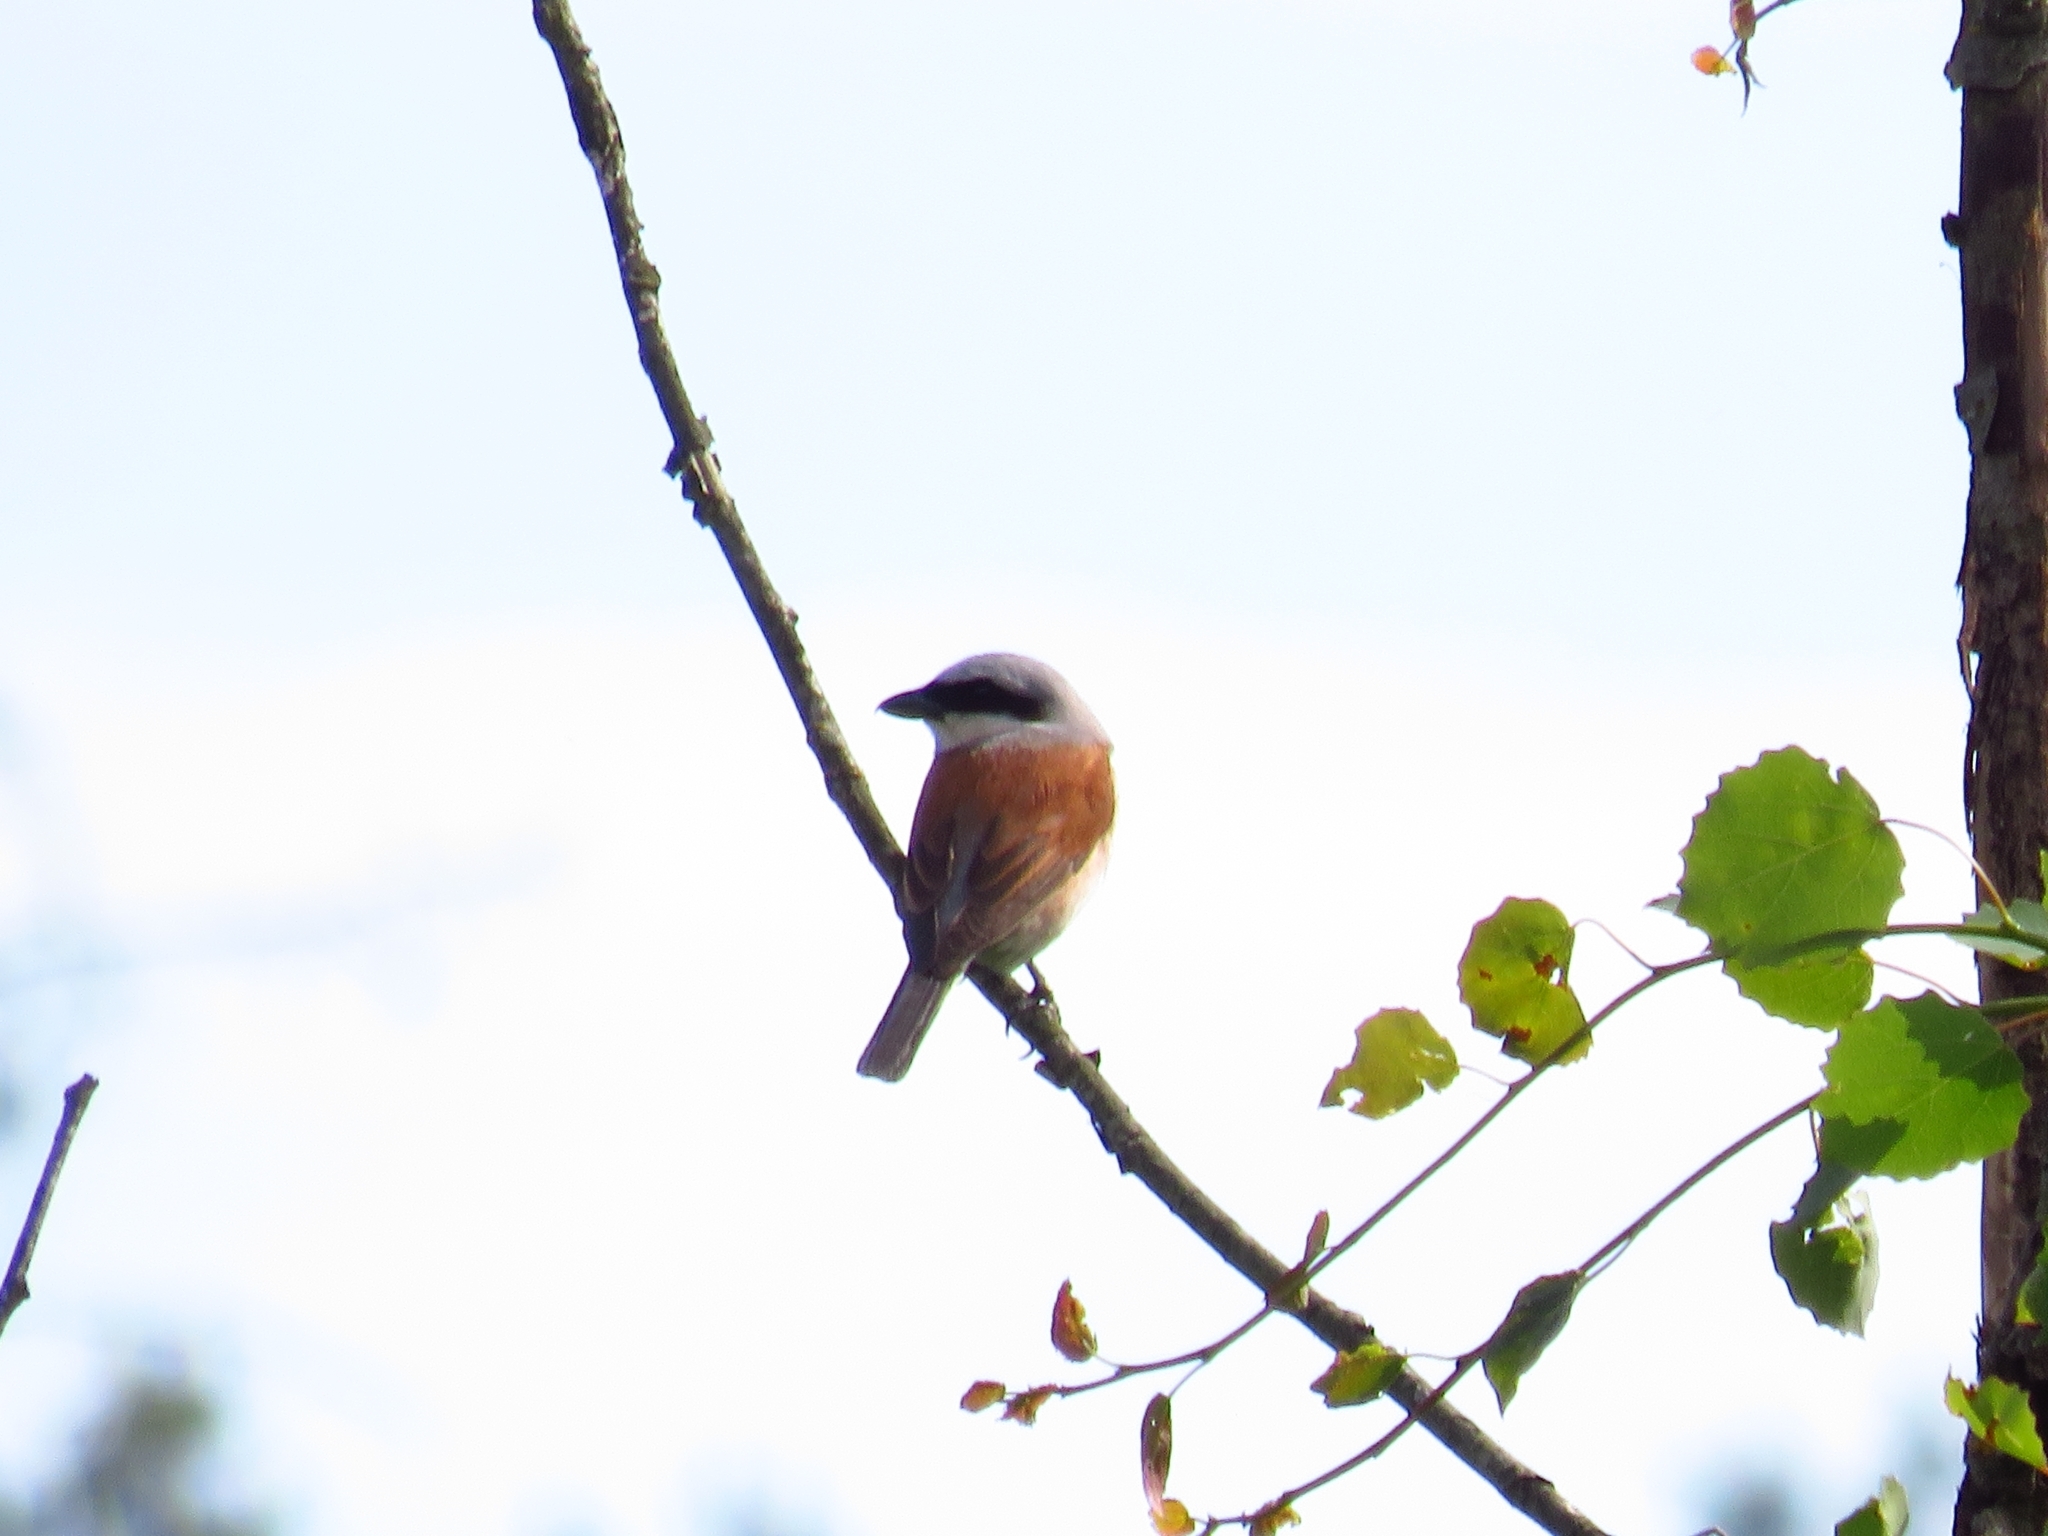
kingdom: Animalia
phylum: Chordata
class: Aves
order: Passeriformes
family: Laniidae
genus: Lanius
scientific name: Lanius collurio
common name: Red-backed shrike
